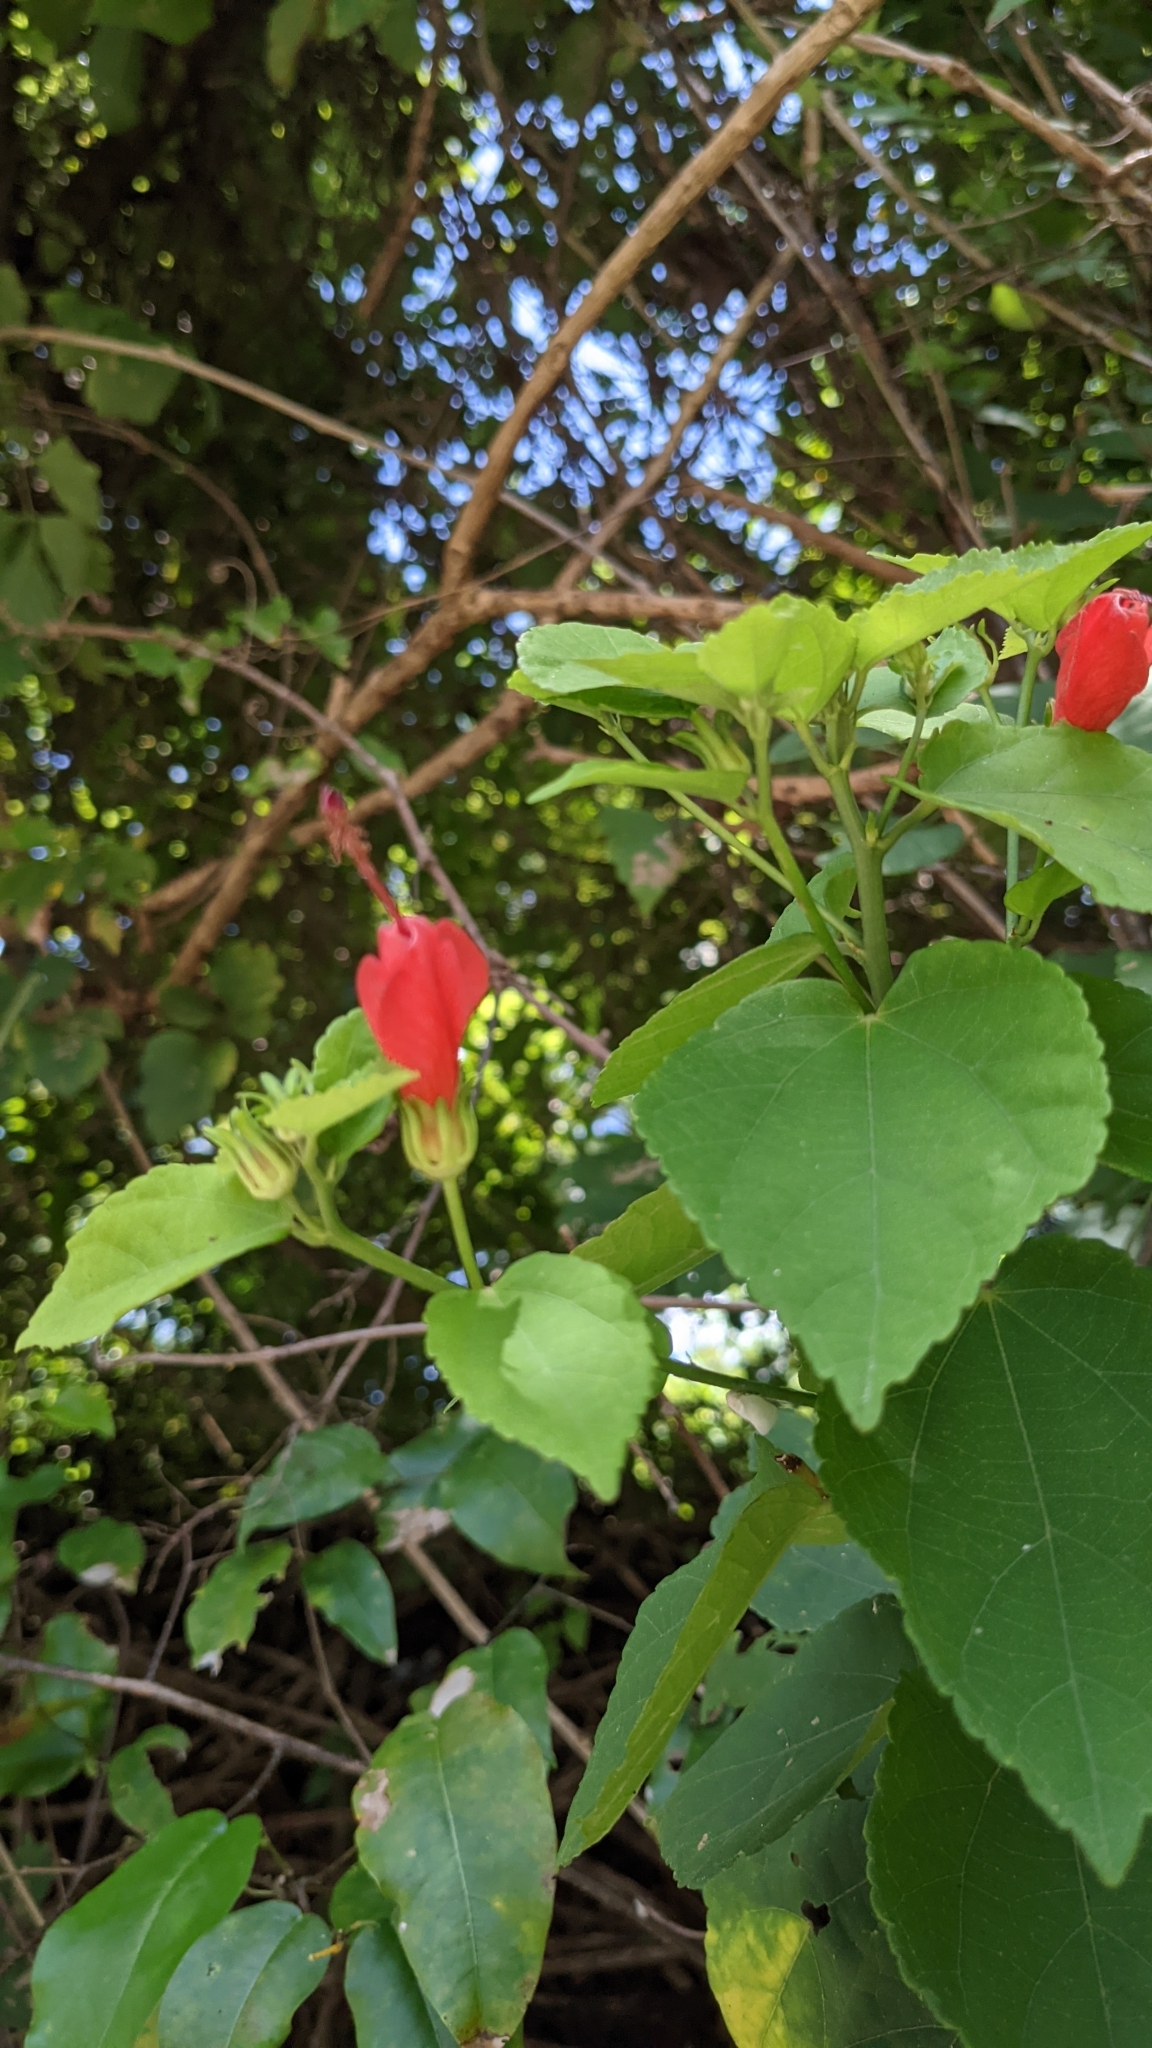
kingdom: Plantae
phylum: Tracheophyta
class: Magnoliopsida
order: Malvales
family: Malvaceae
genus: Malvaviscus
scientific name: Malvaviscus arboreus
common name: Wax mallow
